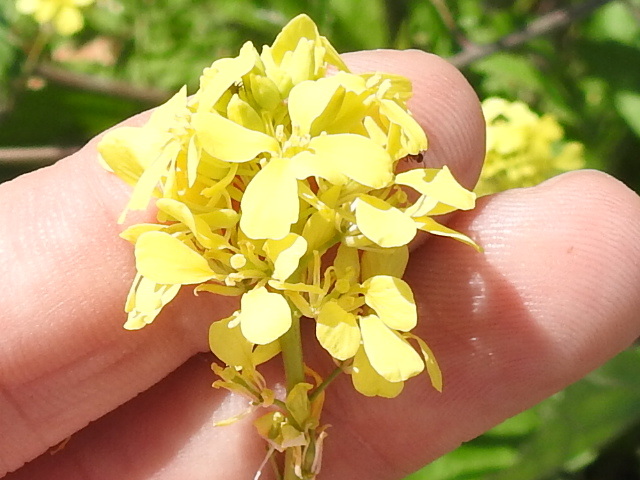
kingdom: Plantae
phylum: Tracheophyta
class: Magnoliopsida
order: Brassicales
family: Brassicaceae
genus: Rapistrum
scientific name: Rapistrum rugosum
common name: Annual bastardcabbage
